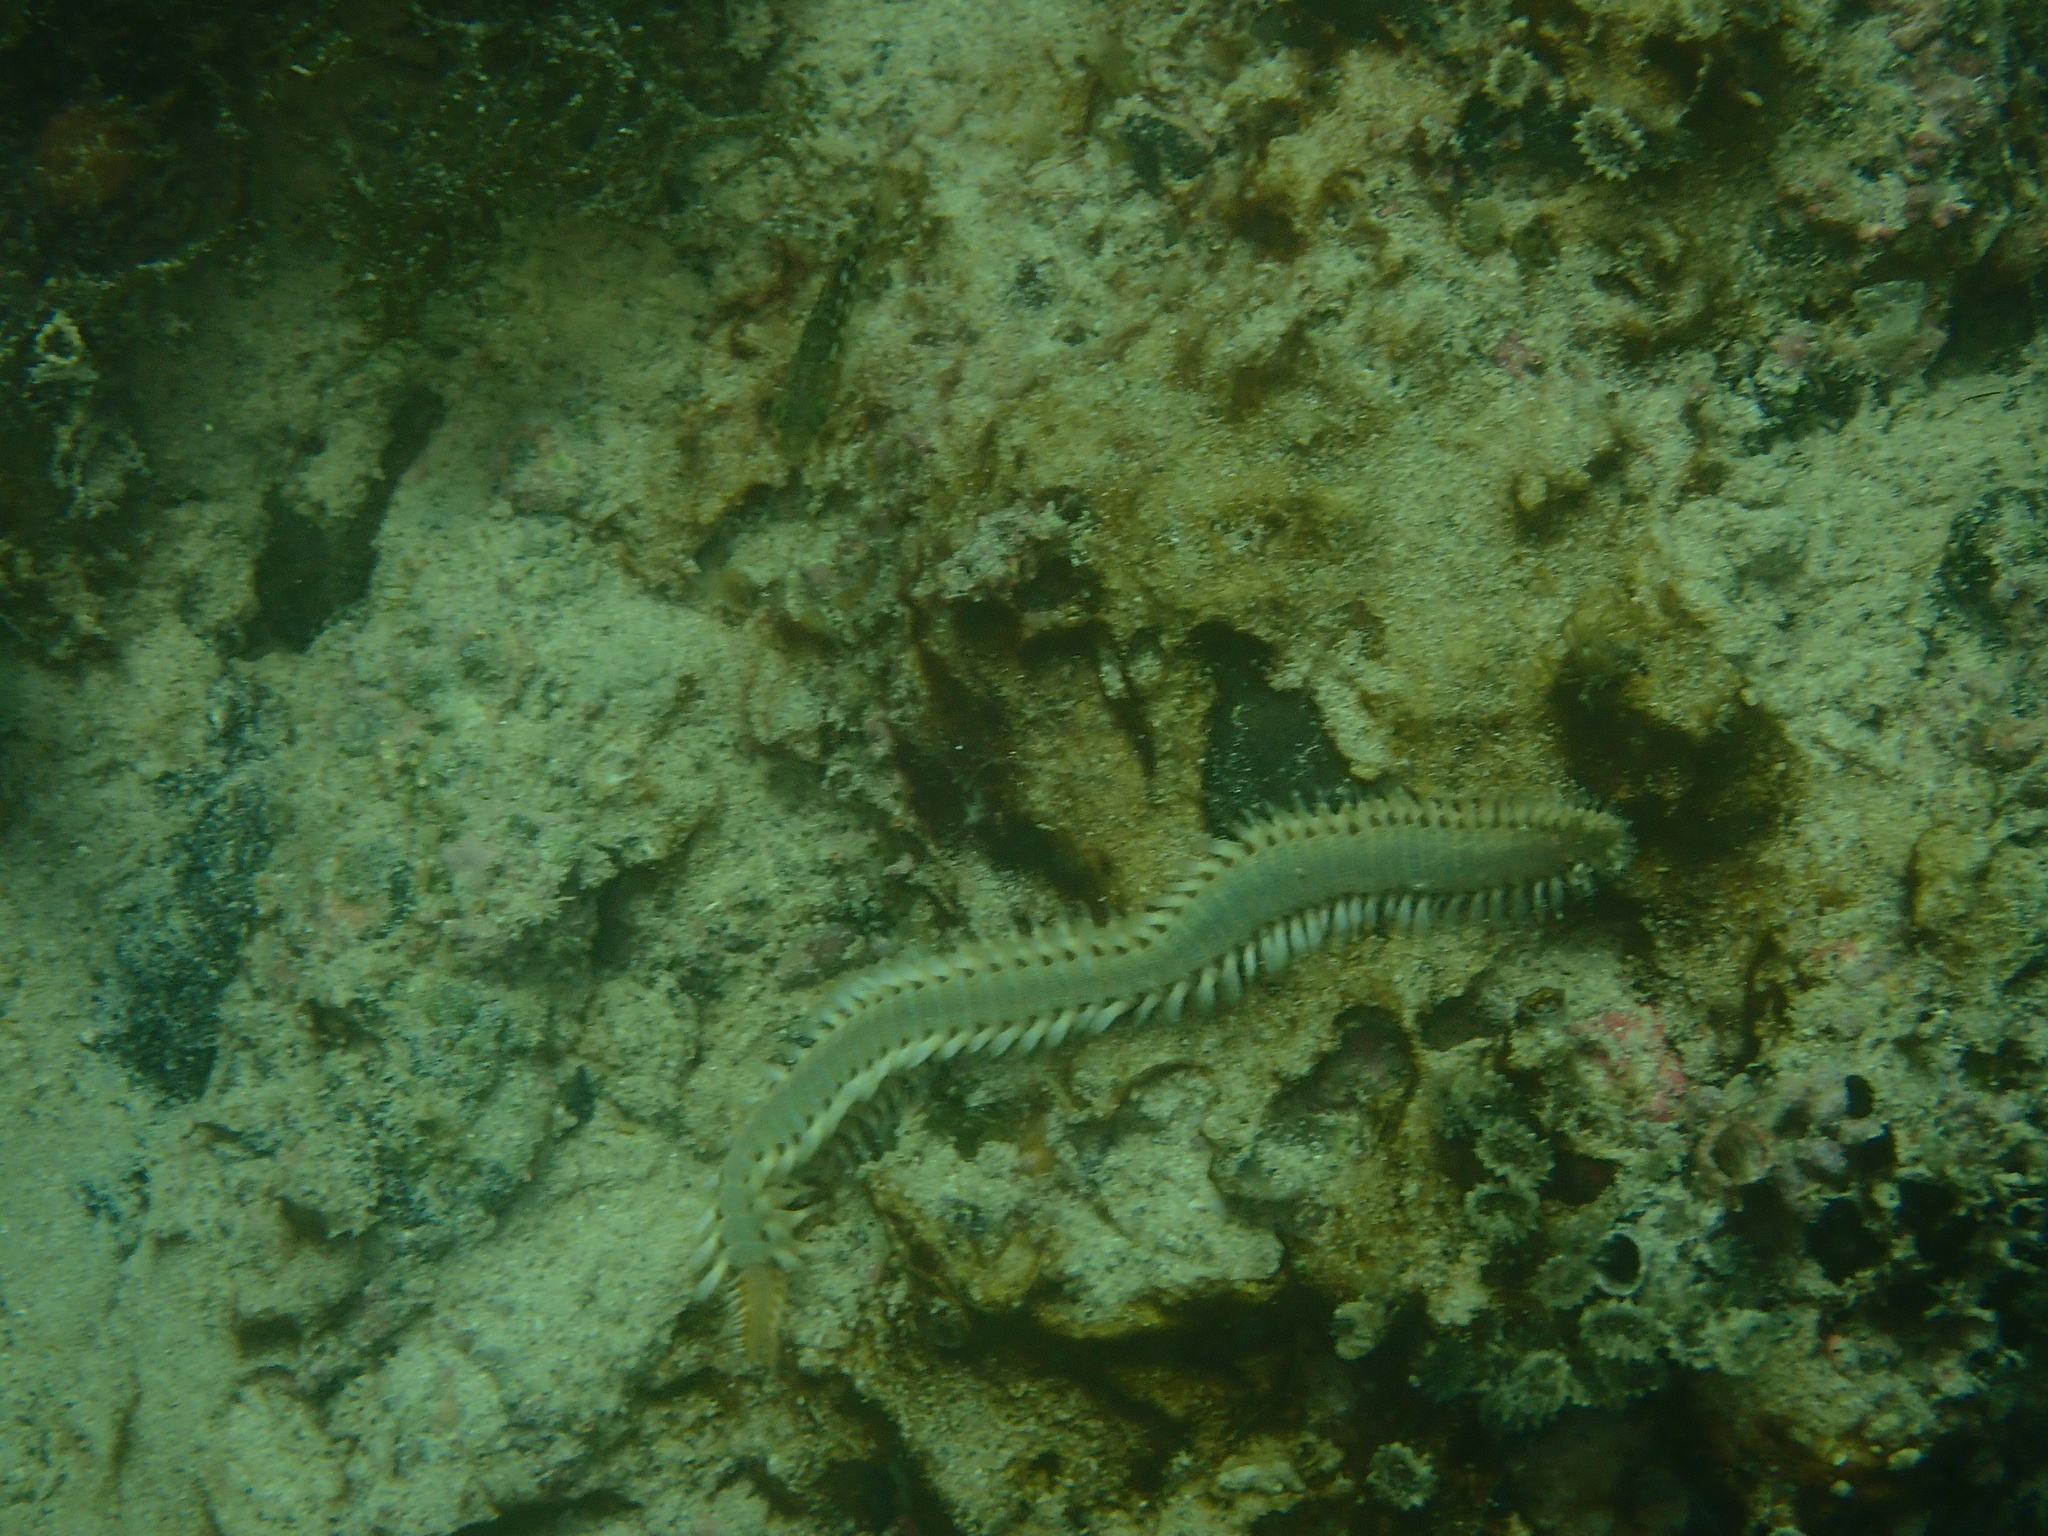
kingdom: Animalia
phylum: Annelida
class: Polychaeta
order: Amphinomida
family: Amphinomidae
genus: Eurythoe
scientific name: Eurythoe complanata
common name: Fireworm
